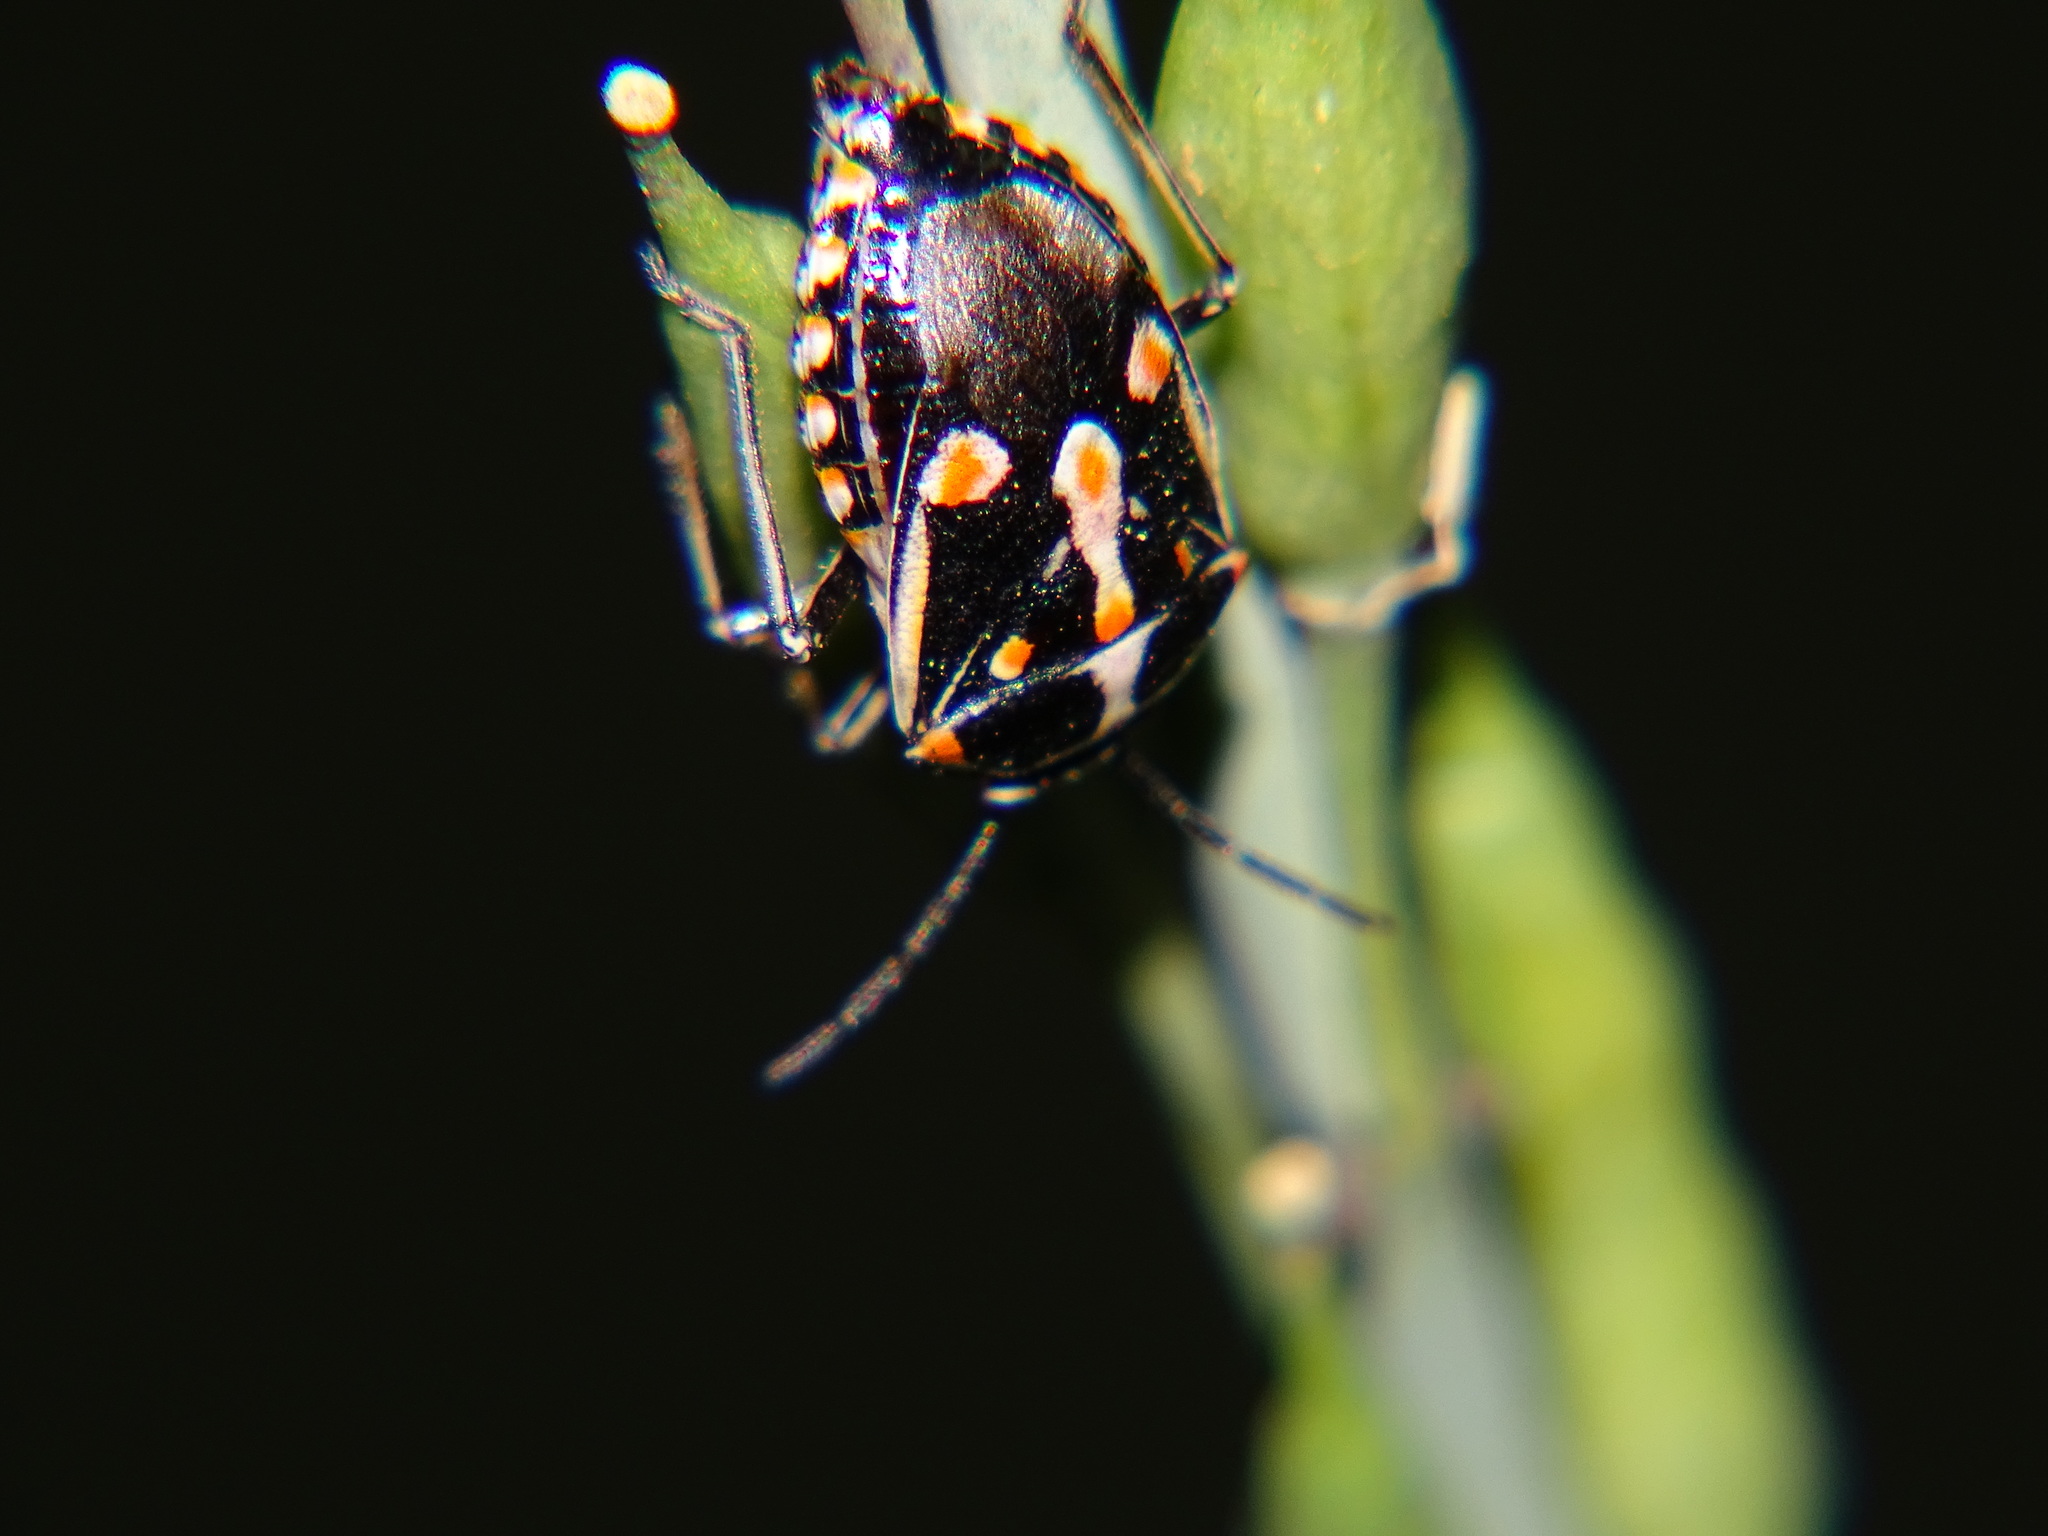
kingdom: Animalia
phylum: Arthropoda
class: Insecta
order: Hemiptera
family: Pentatomidae
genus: Bagrada
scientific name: Bagrada hilaris
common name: Bagrada bug
